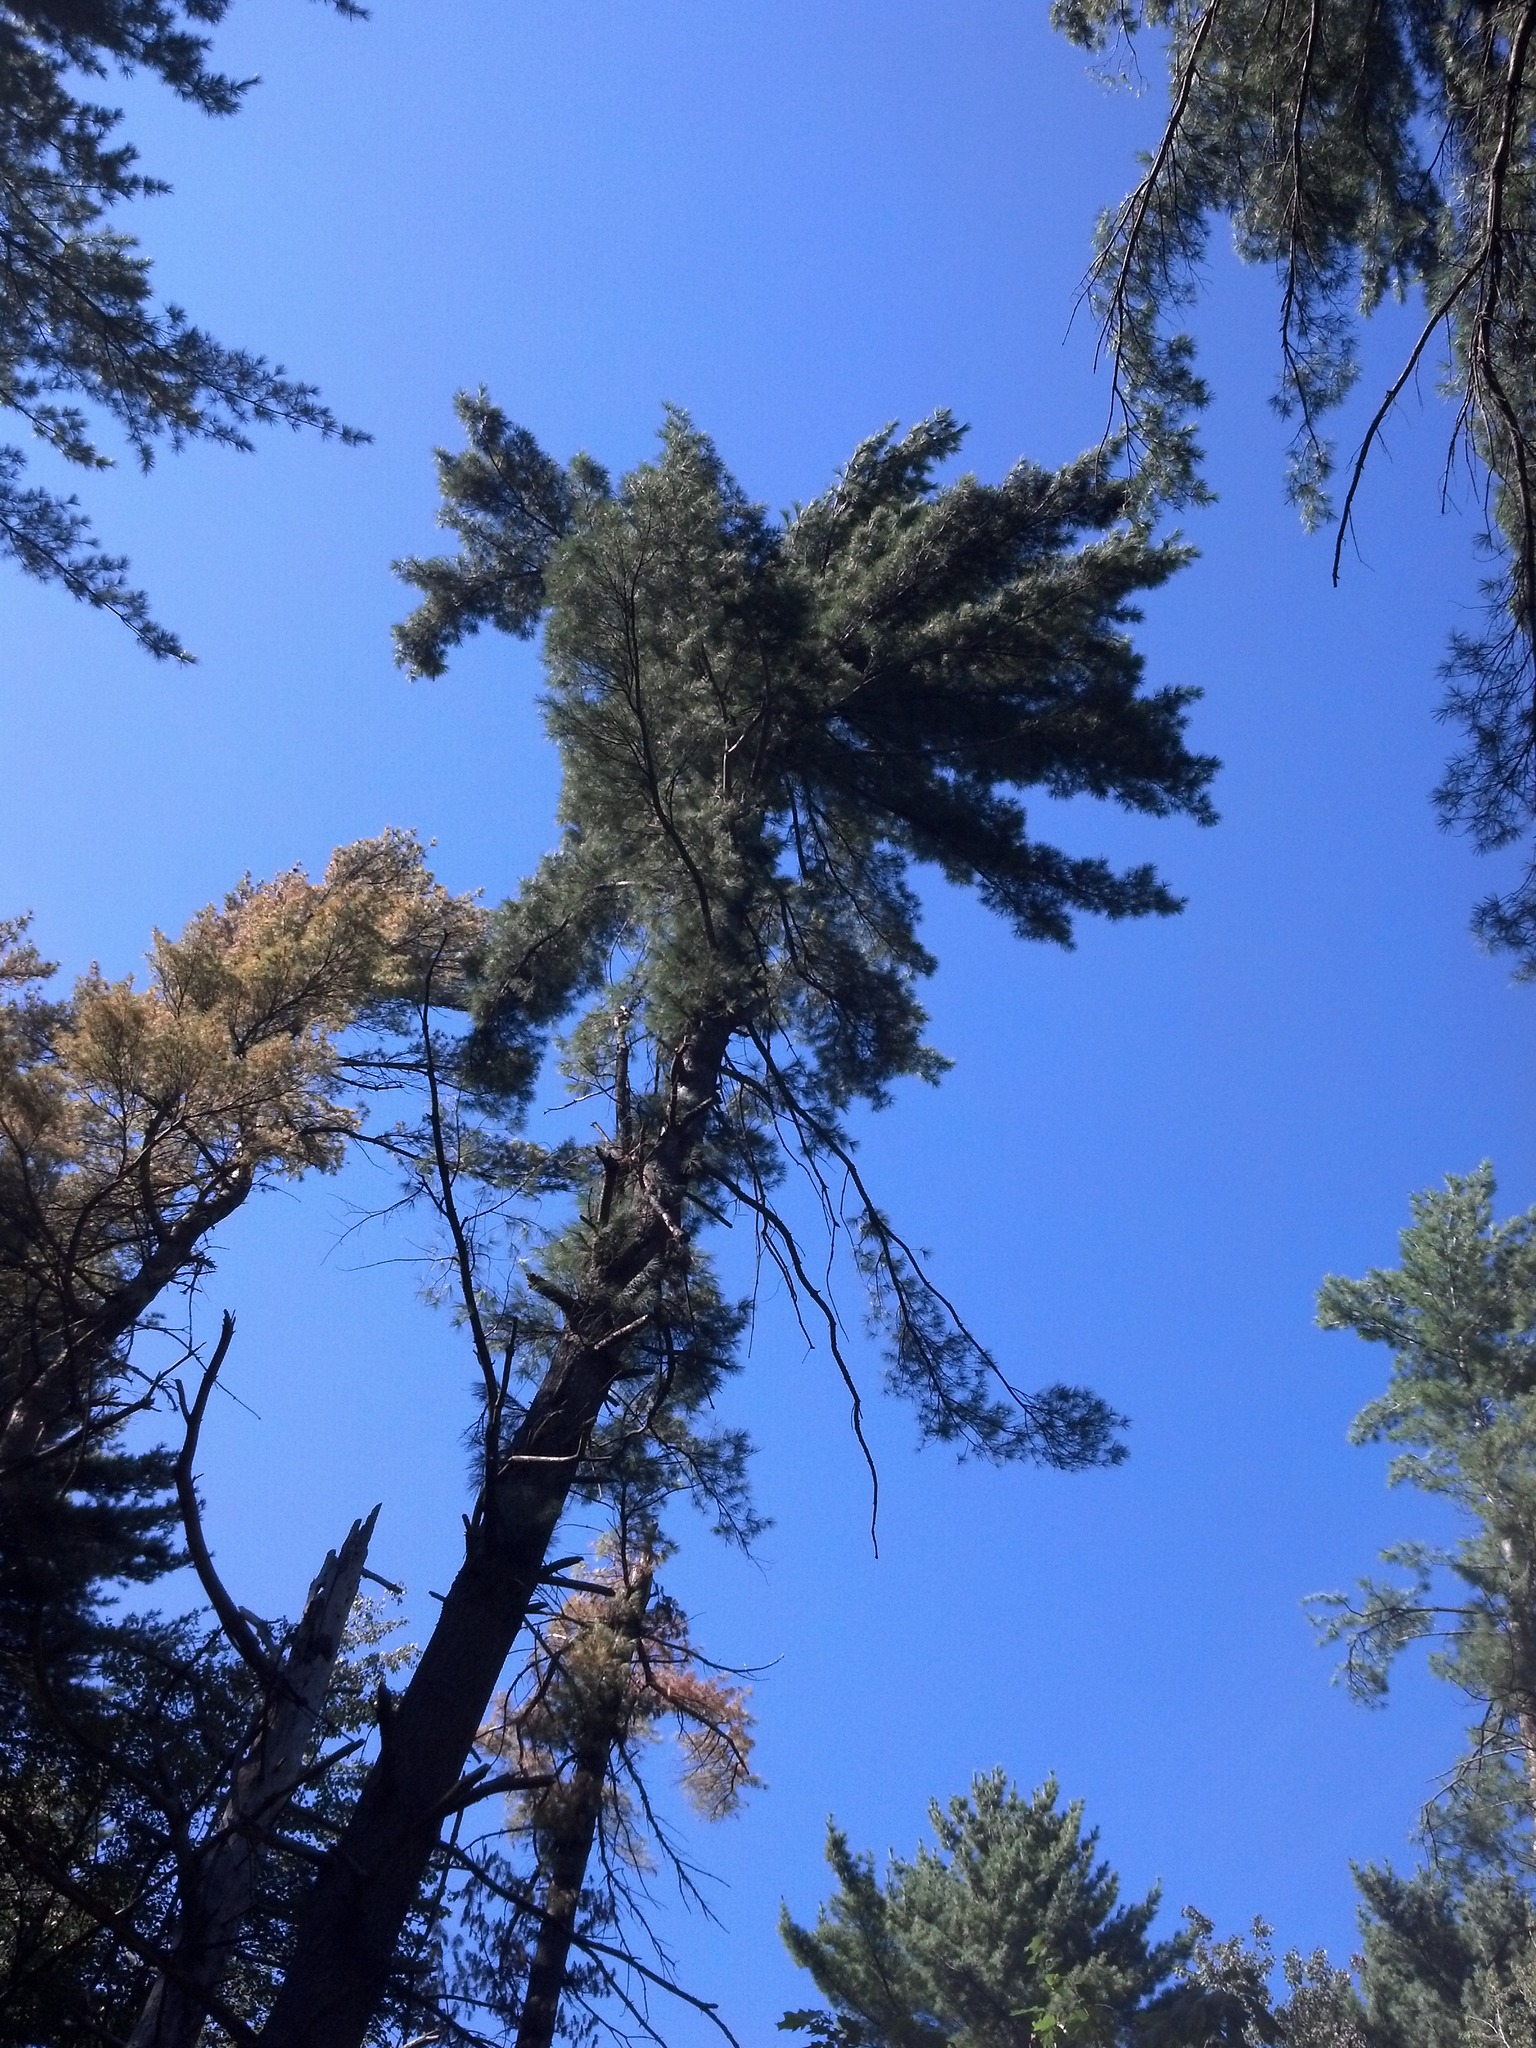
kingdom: Plantae
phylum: Tracheophyta
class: Pinopsida
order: Pinales
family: Pinaceae
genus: Pinus
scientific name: Pinus strobus
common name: Weymouth pine
